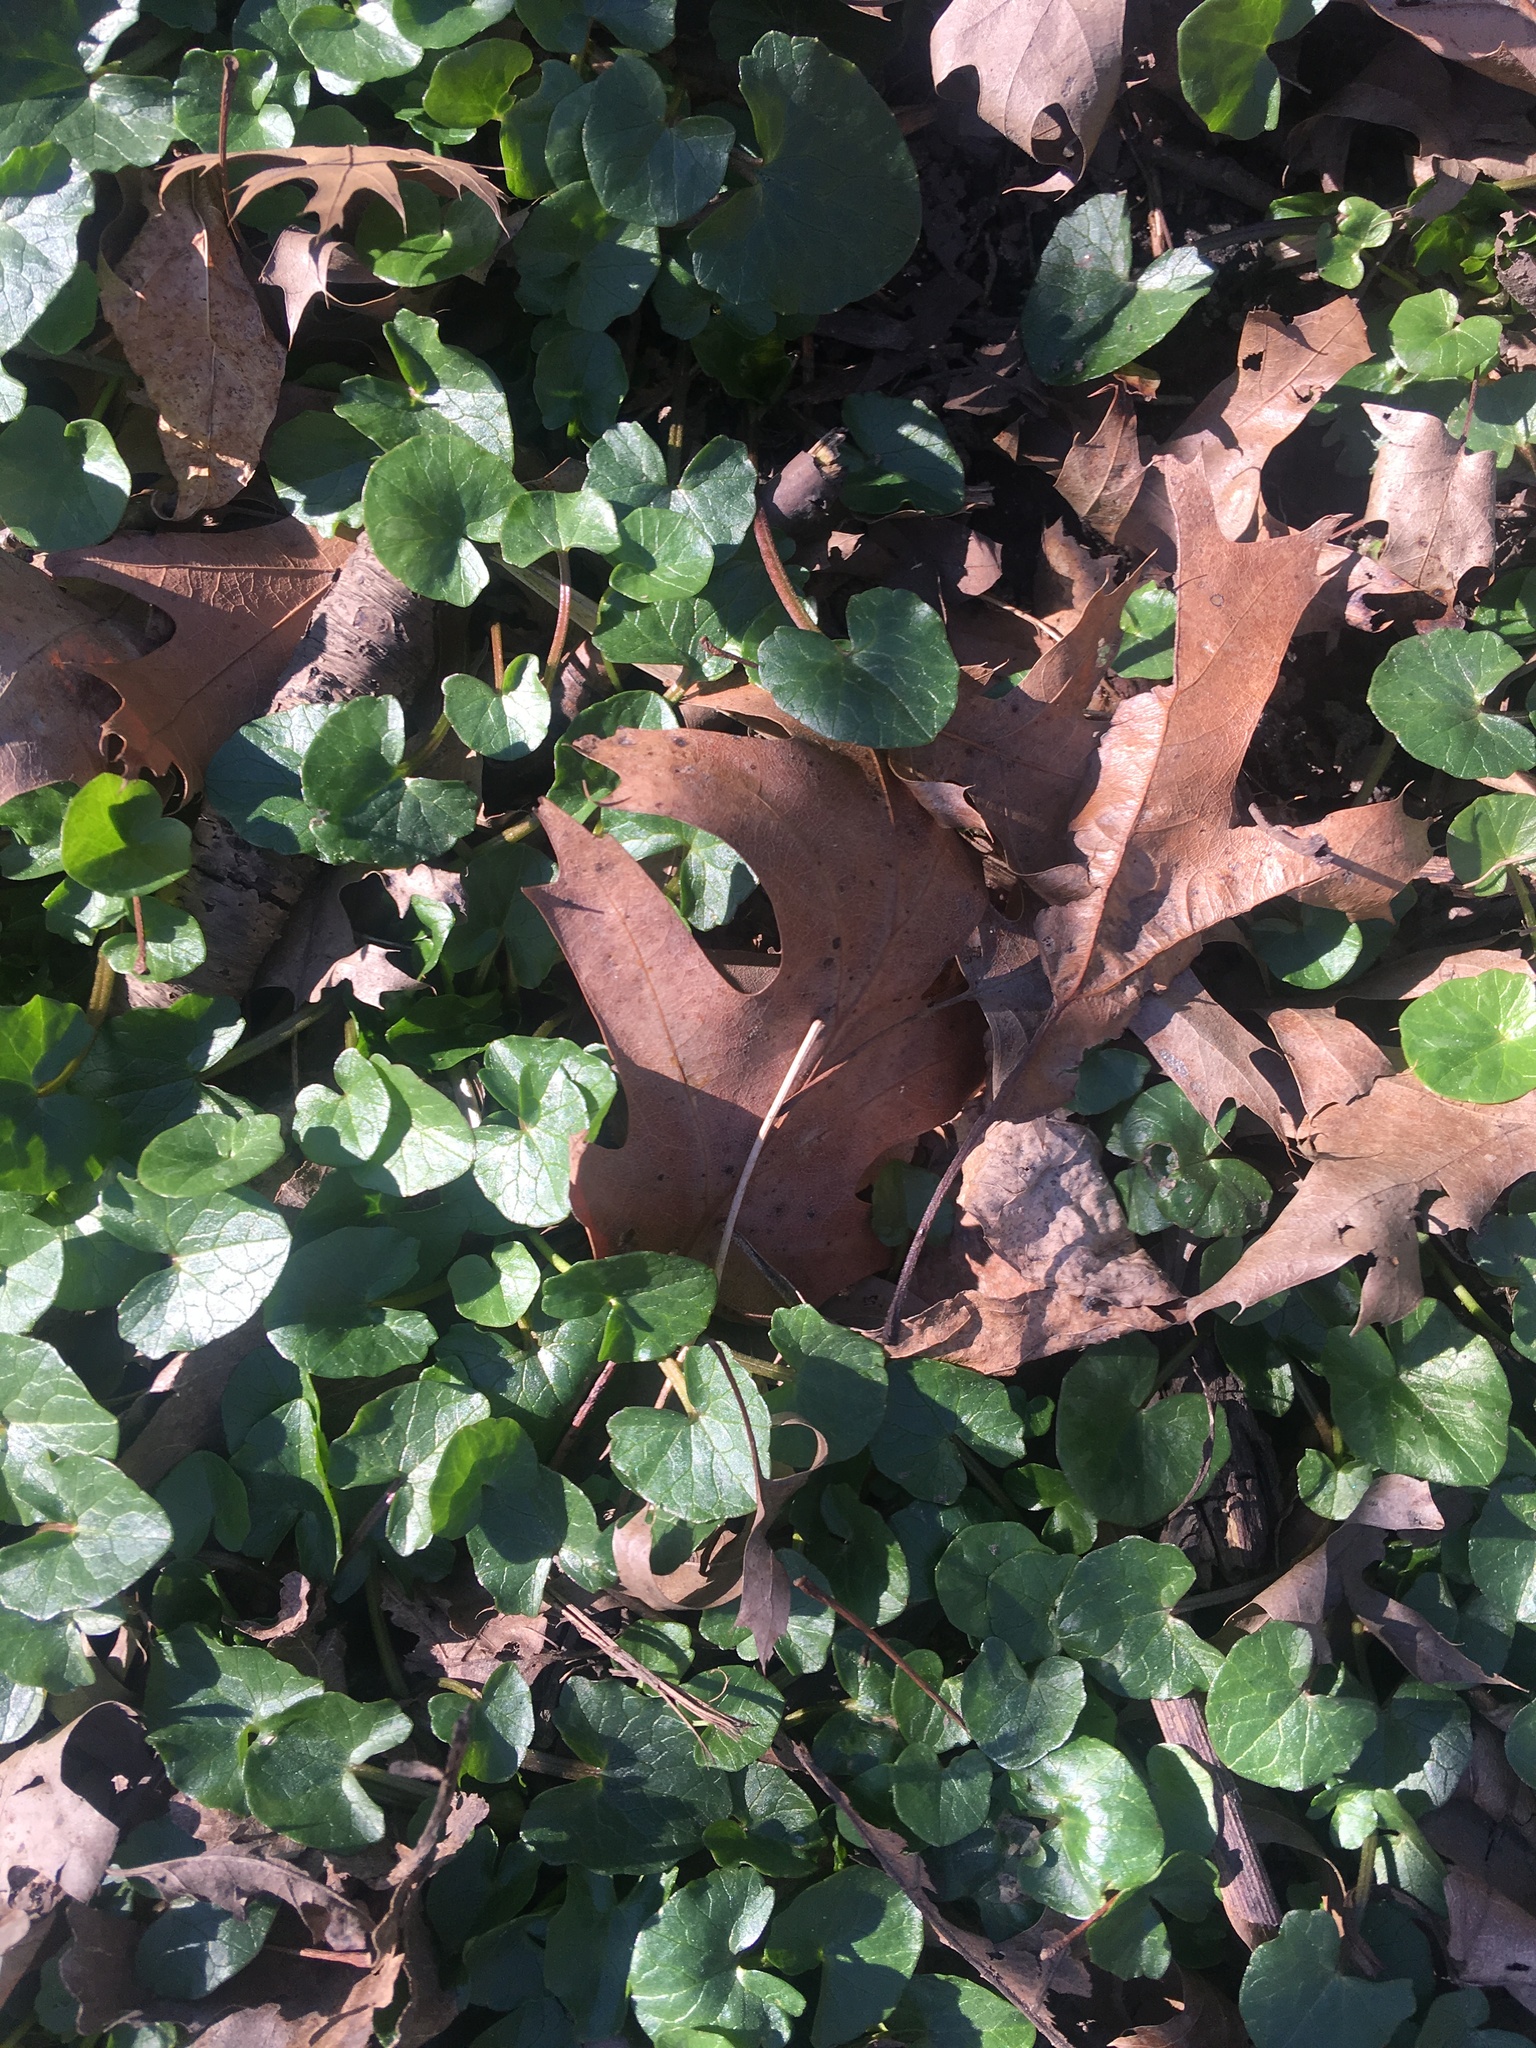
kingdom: Plantae
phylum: Tracheophyta
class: Magnoliopsida
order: Ranunculales
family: Ranunculaceae
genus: Ficaria
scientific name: Ficaria verna
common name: Lesser celandine
